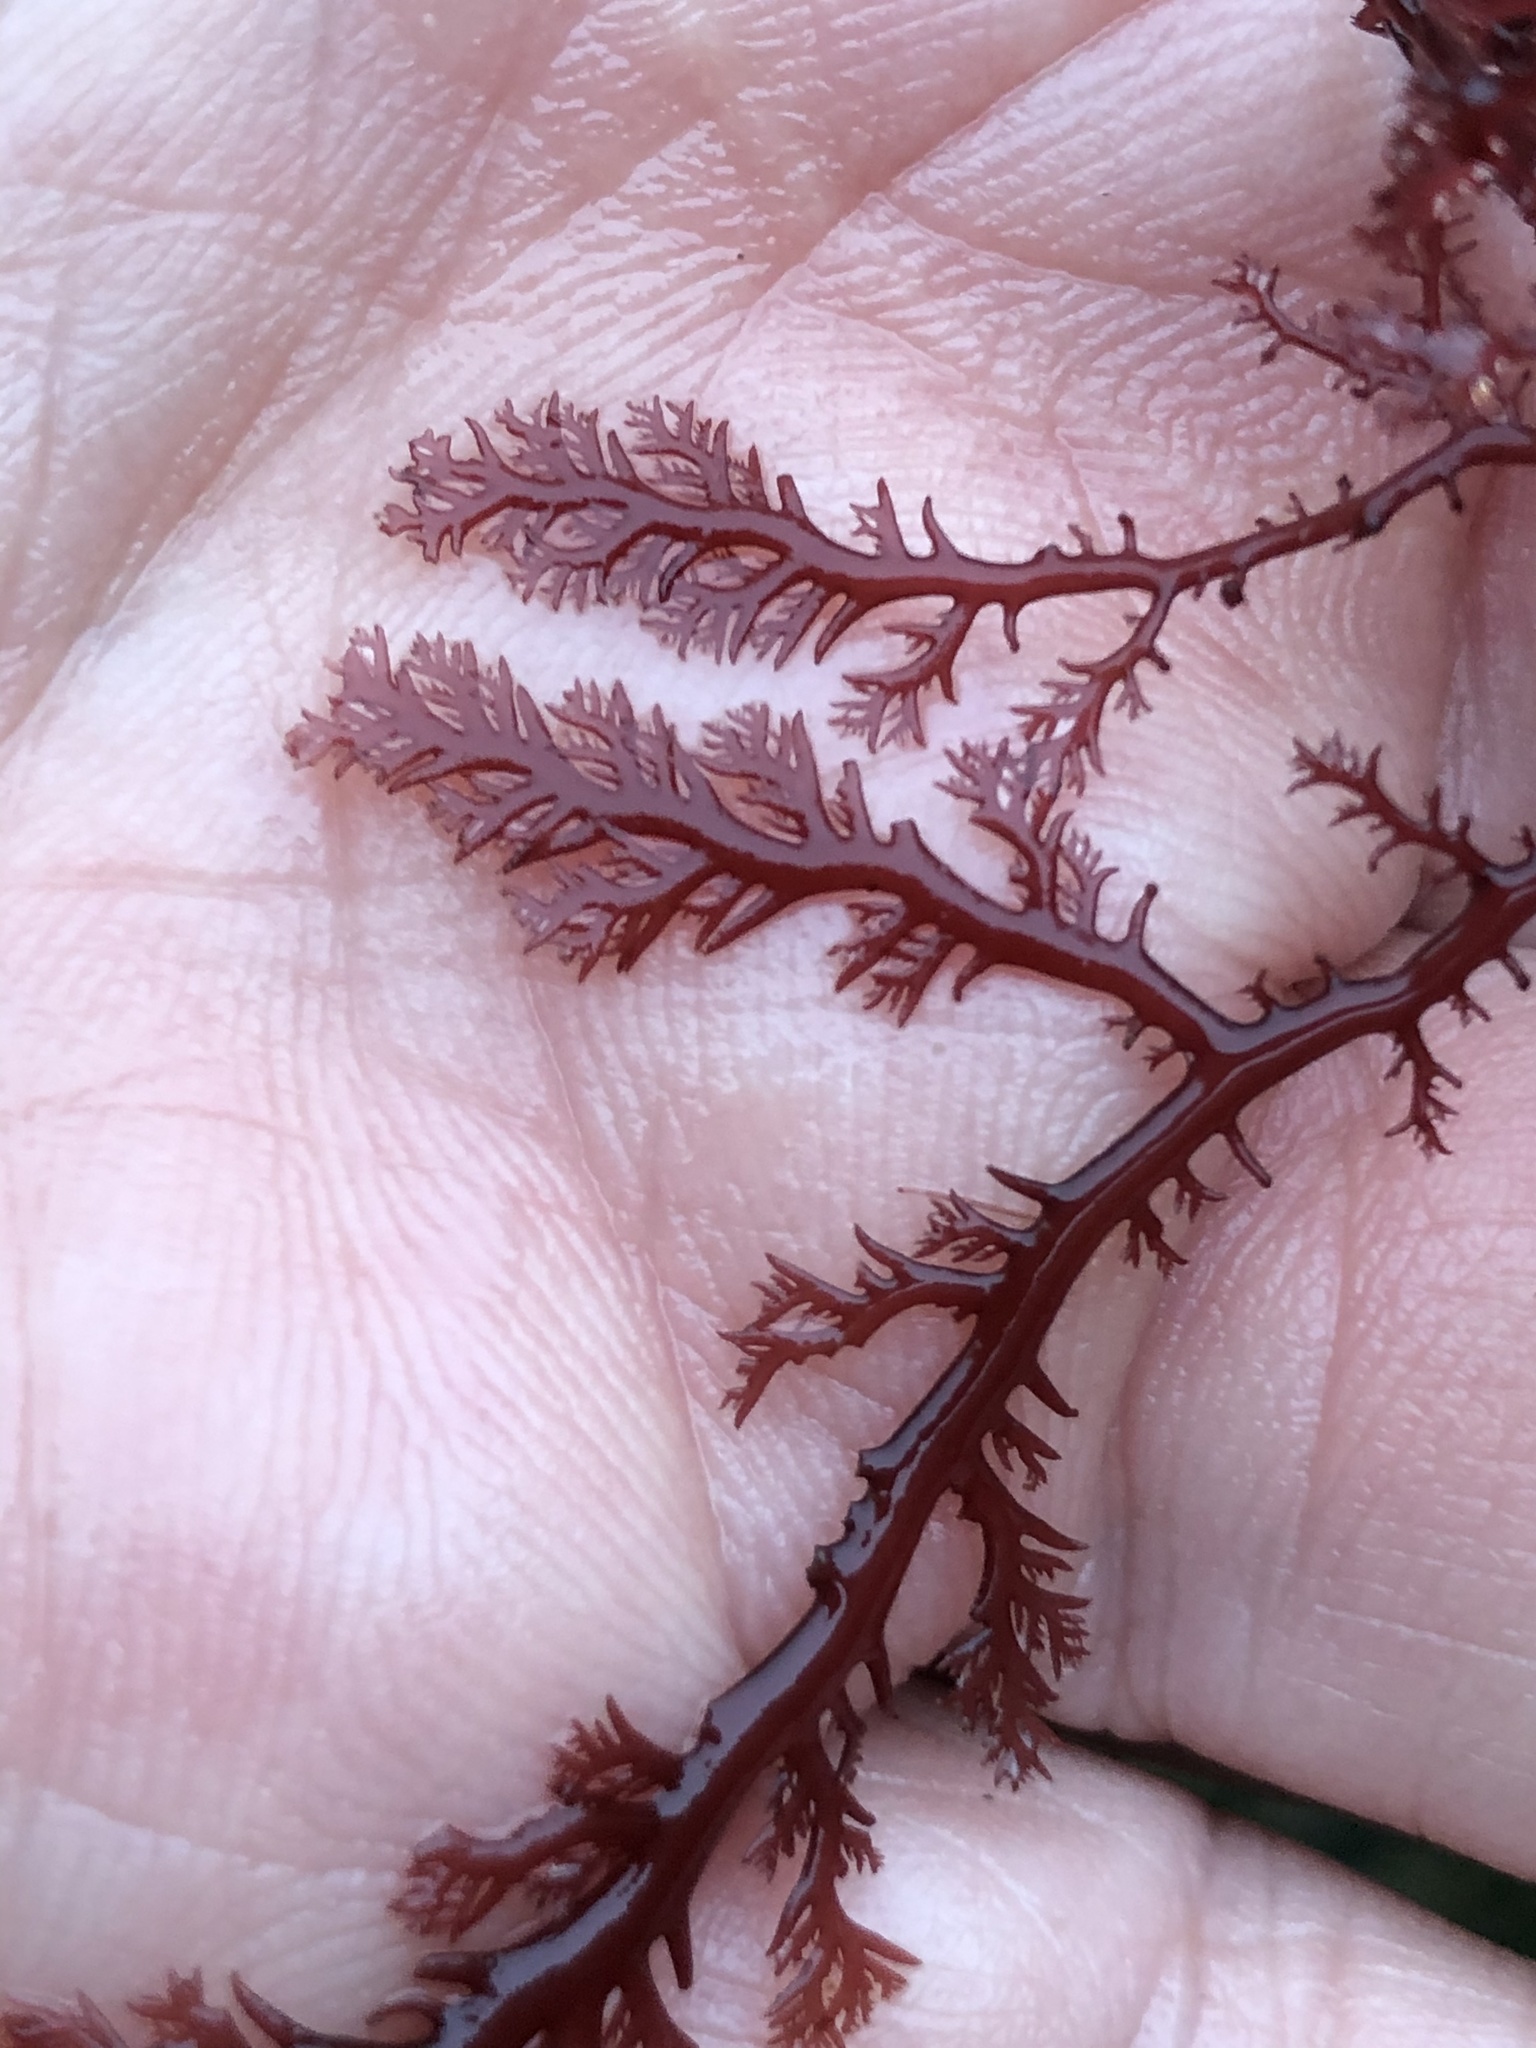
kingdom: Plantae
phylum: Rhodophyta
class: Florideophyceae
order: Plocamiales
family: Plocamiaceae
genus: Plocamium
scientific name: Plocamium cartilagineum
